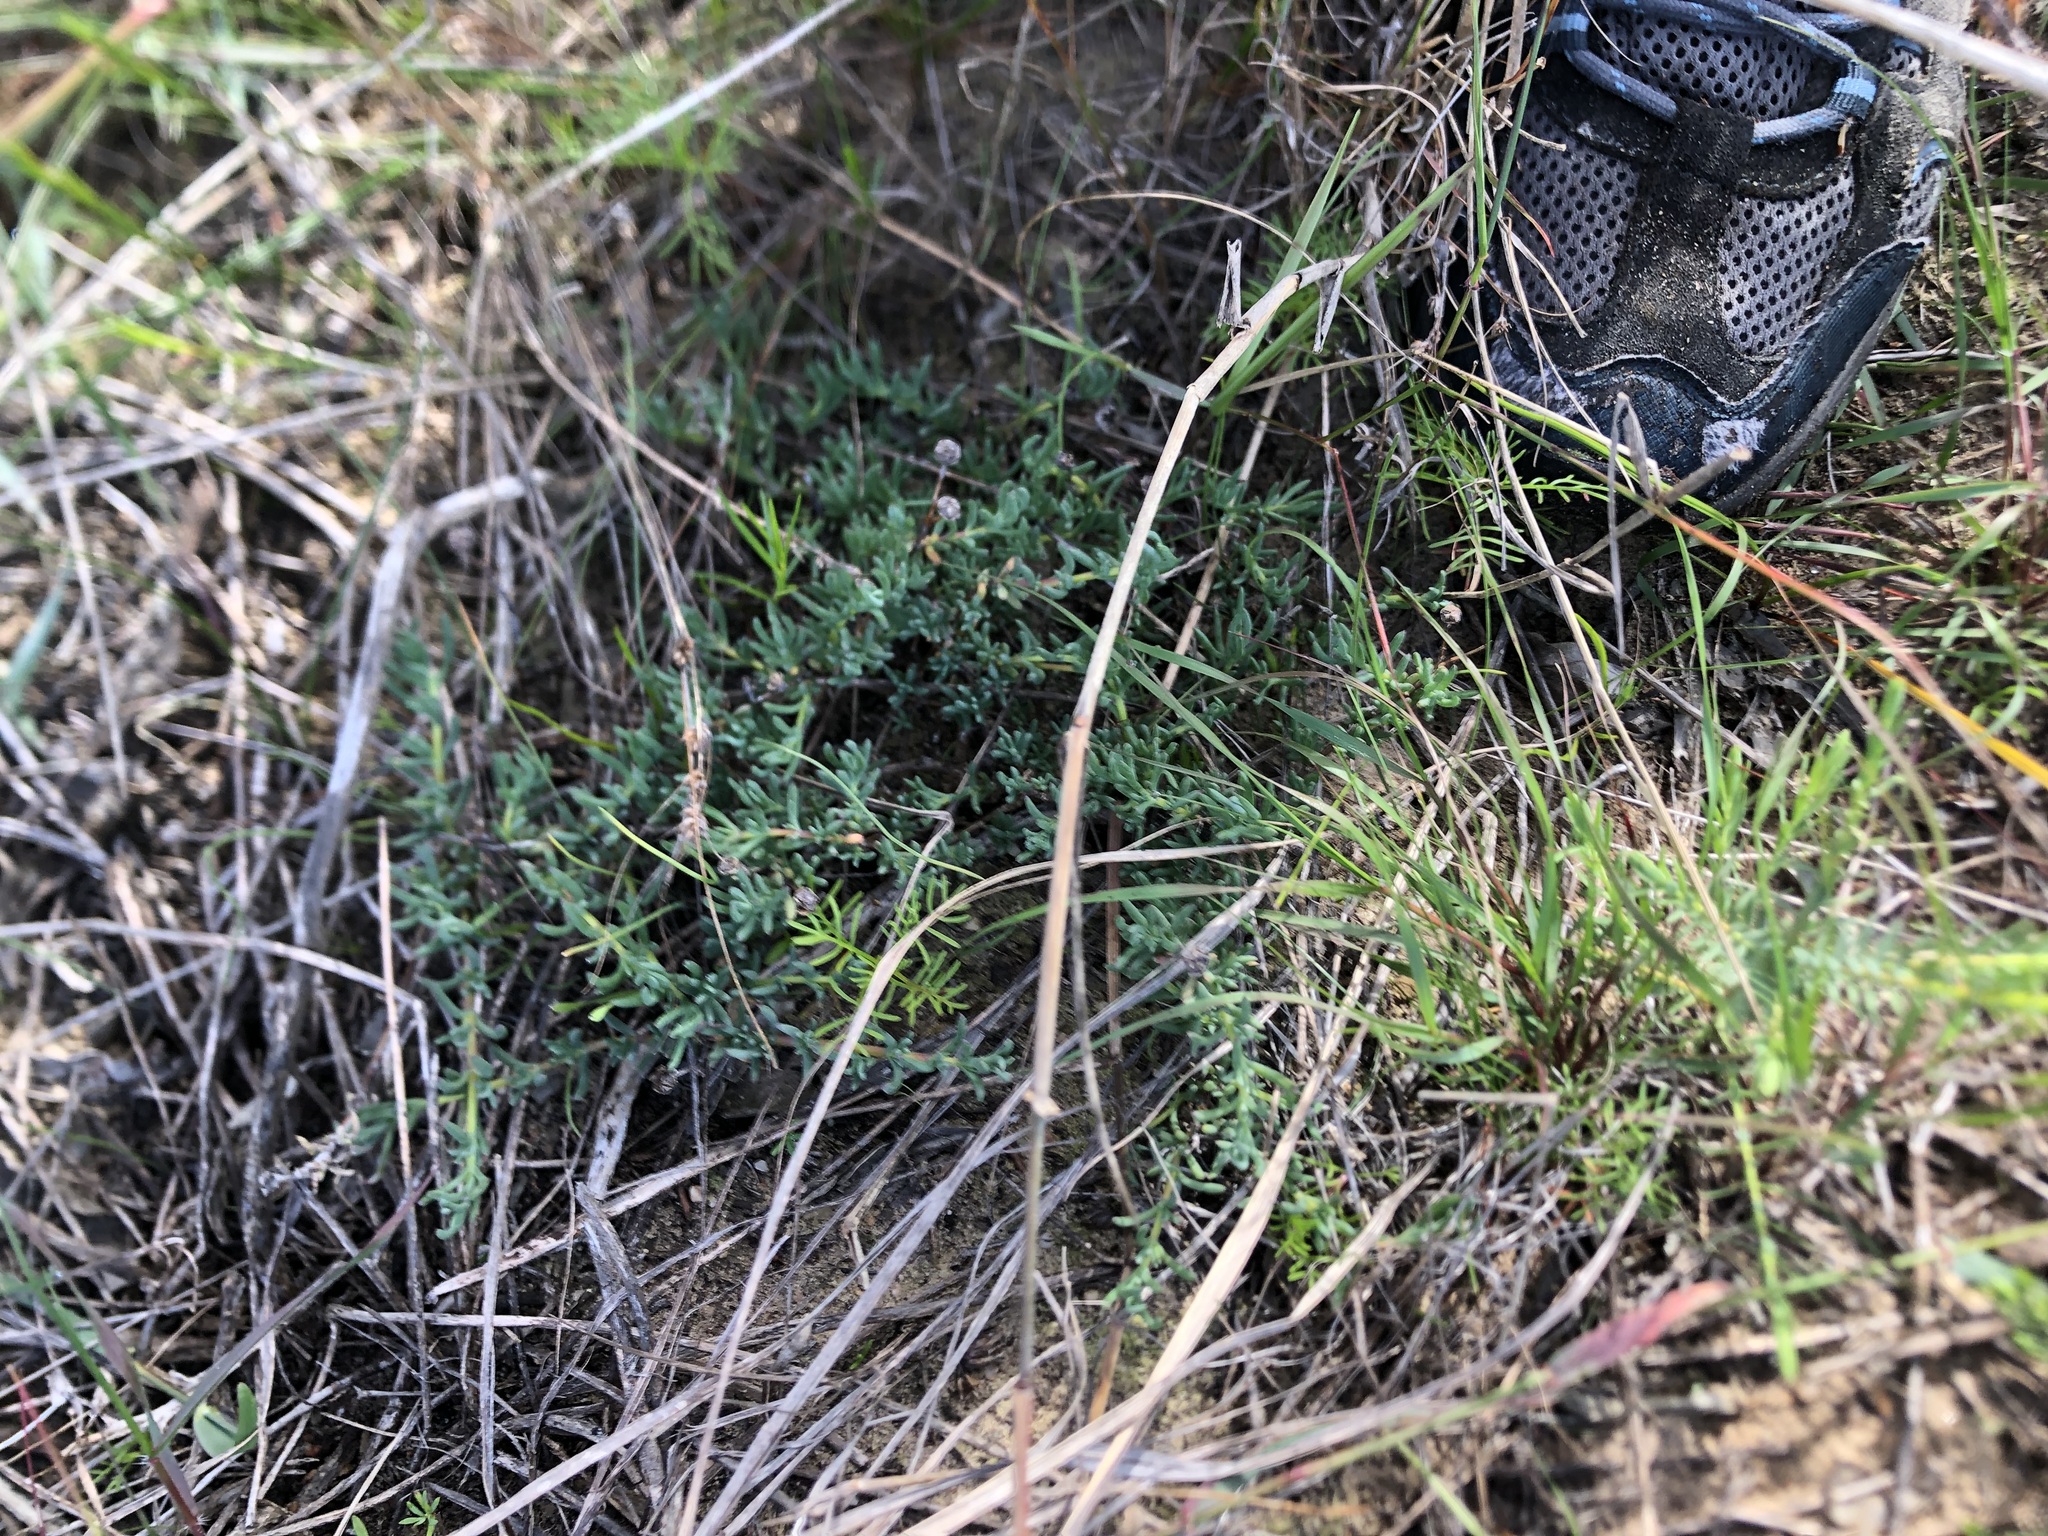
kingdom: Plantae
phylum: Tracheophyta
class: Magnoliopsida
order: Caryophyllales
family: Aizoaceae
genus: Lampranthus
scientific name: Lampranthus emarginatus
